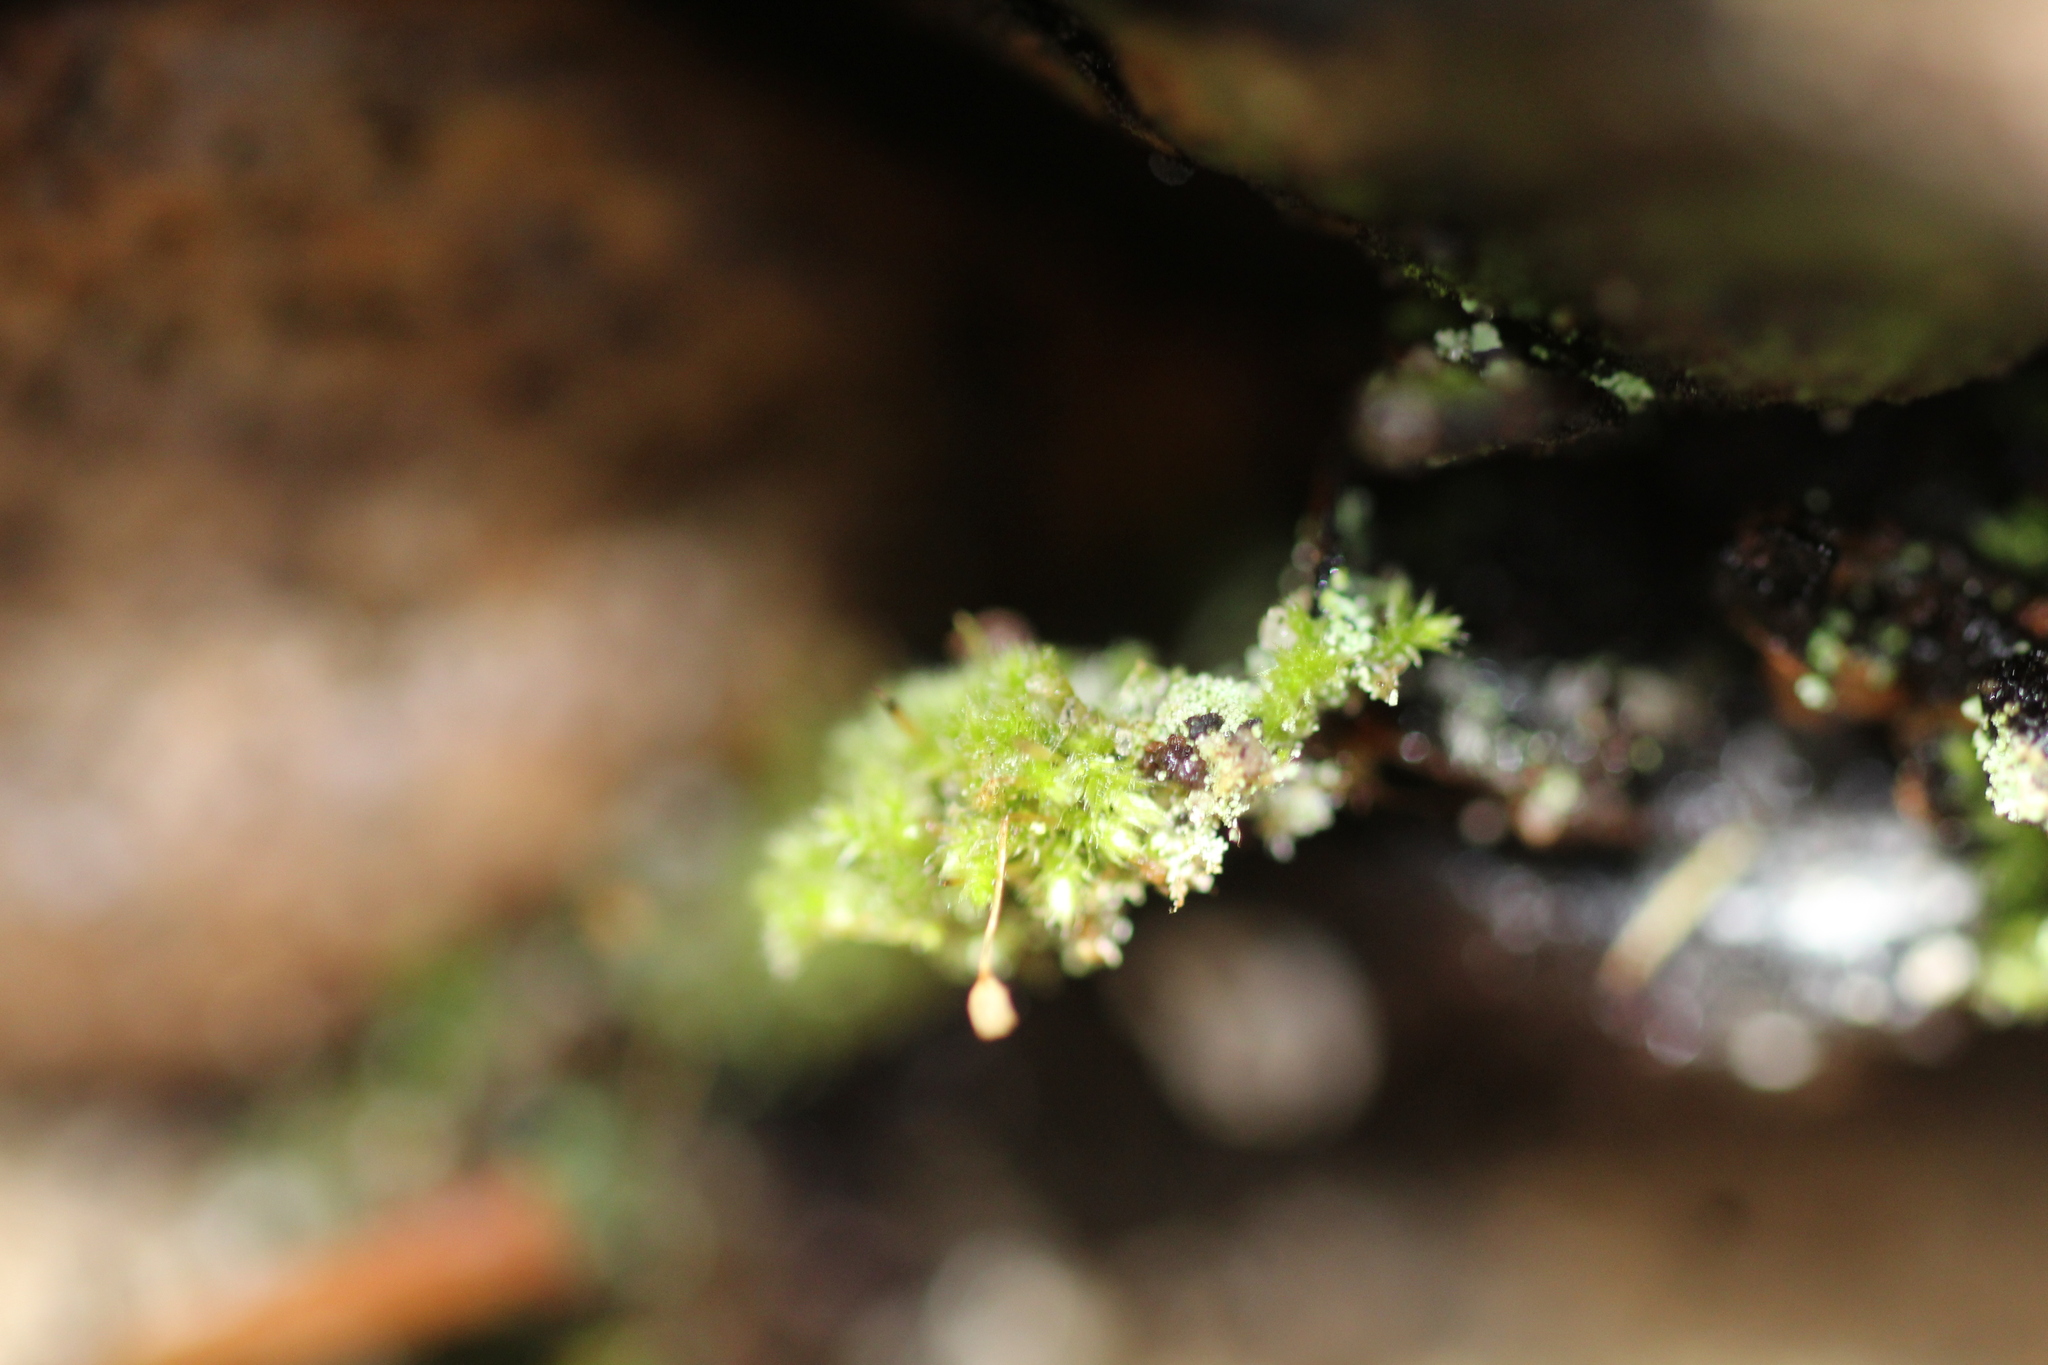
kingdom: Plantae
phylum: Bryophyta
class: Bryopsida
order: Hypnales
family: Fabroniaceae
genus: Fabronia
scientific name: Fabronia hampeana
